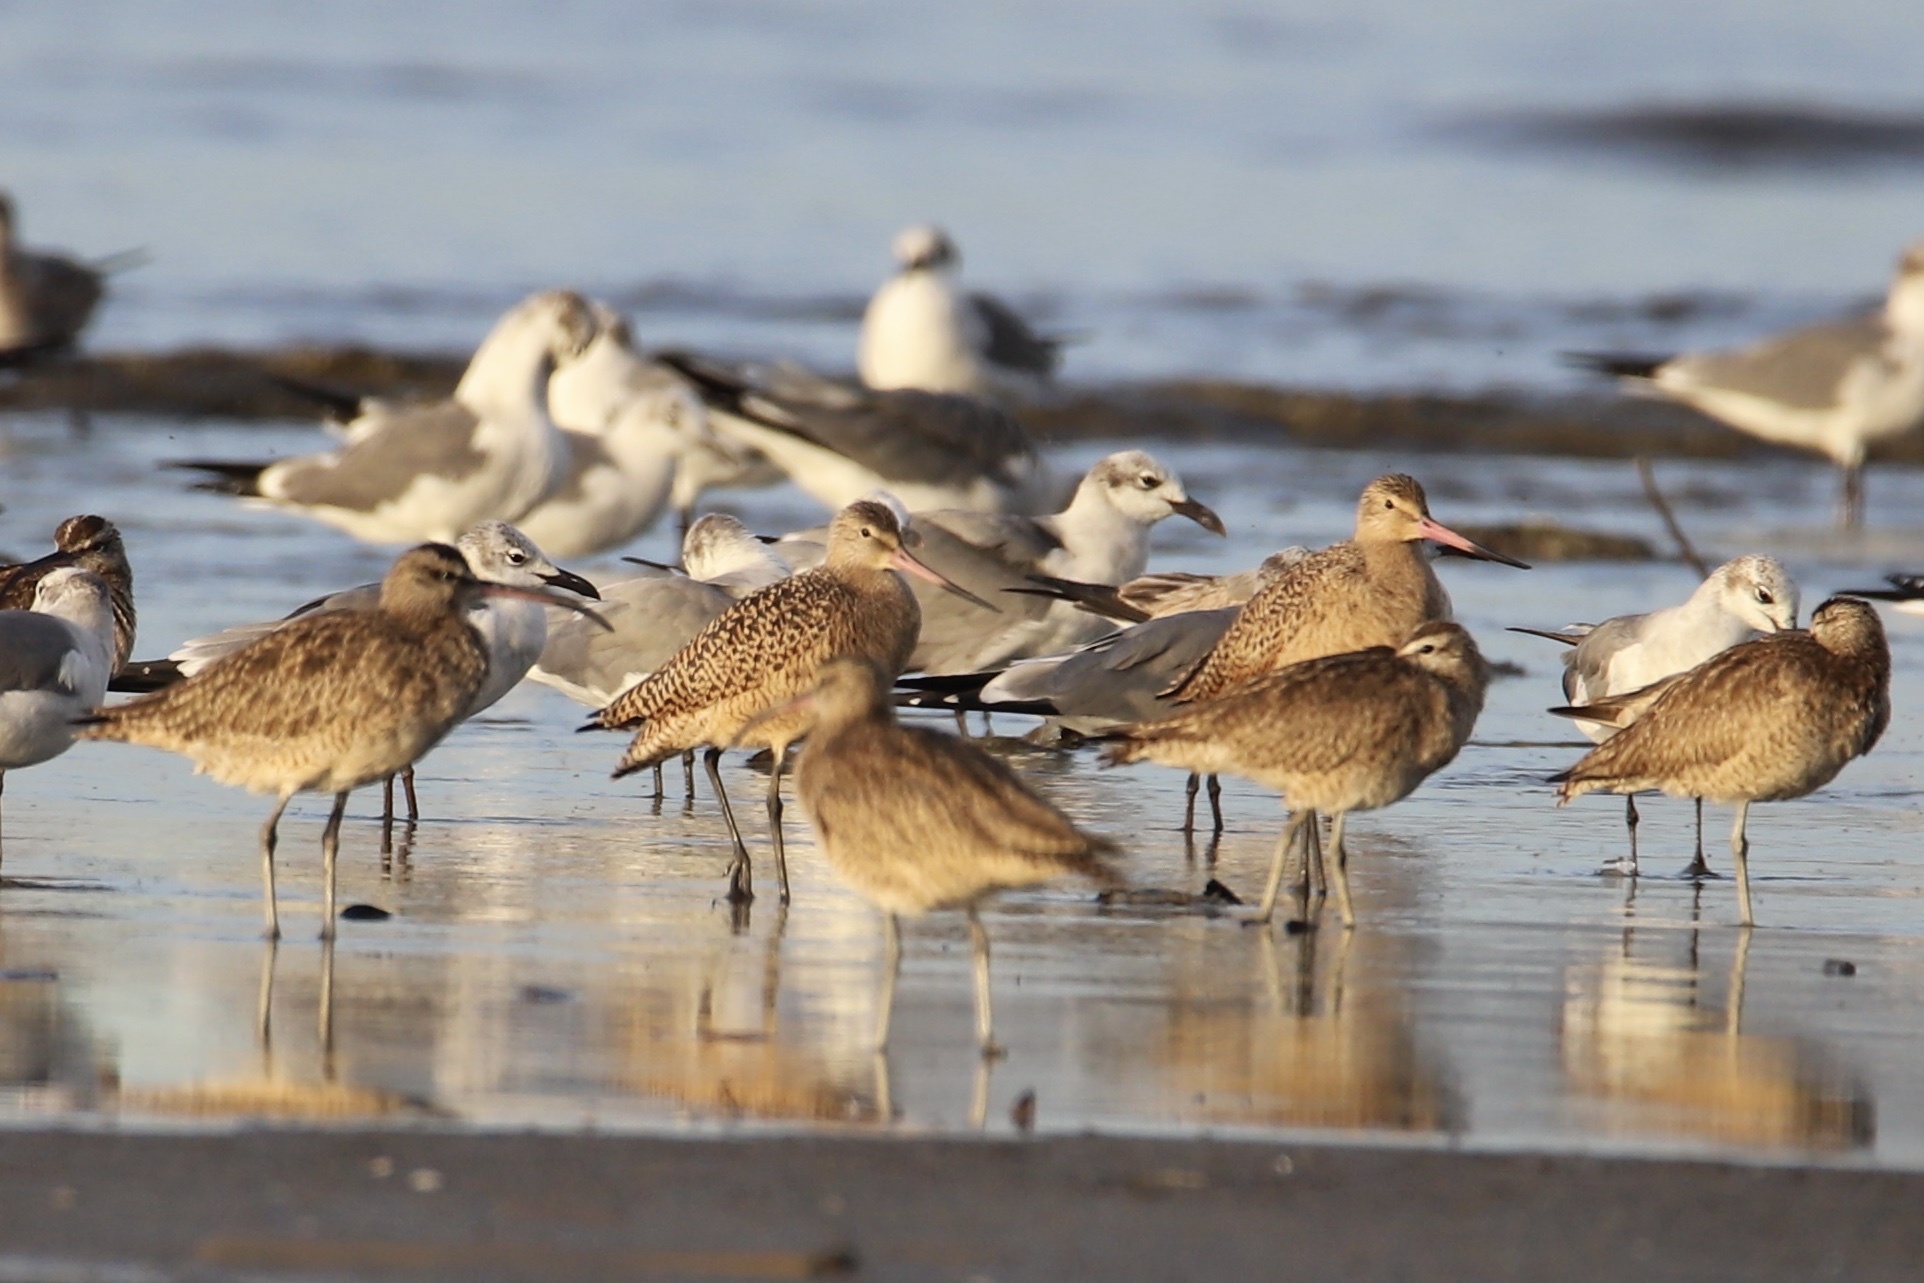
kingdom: Animalia
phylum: Chordata
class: Aves
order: Charadriiformes
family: Scolopacidae
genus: Limosa
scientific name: Limosa fedoa
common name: Marbled godwit
